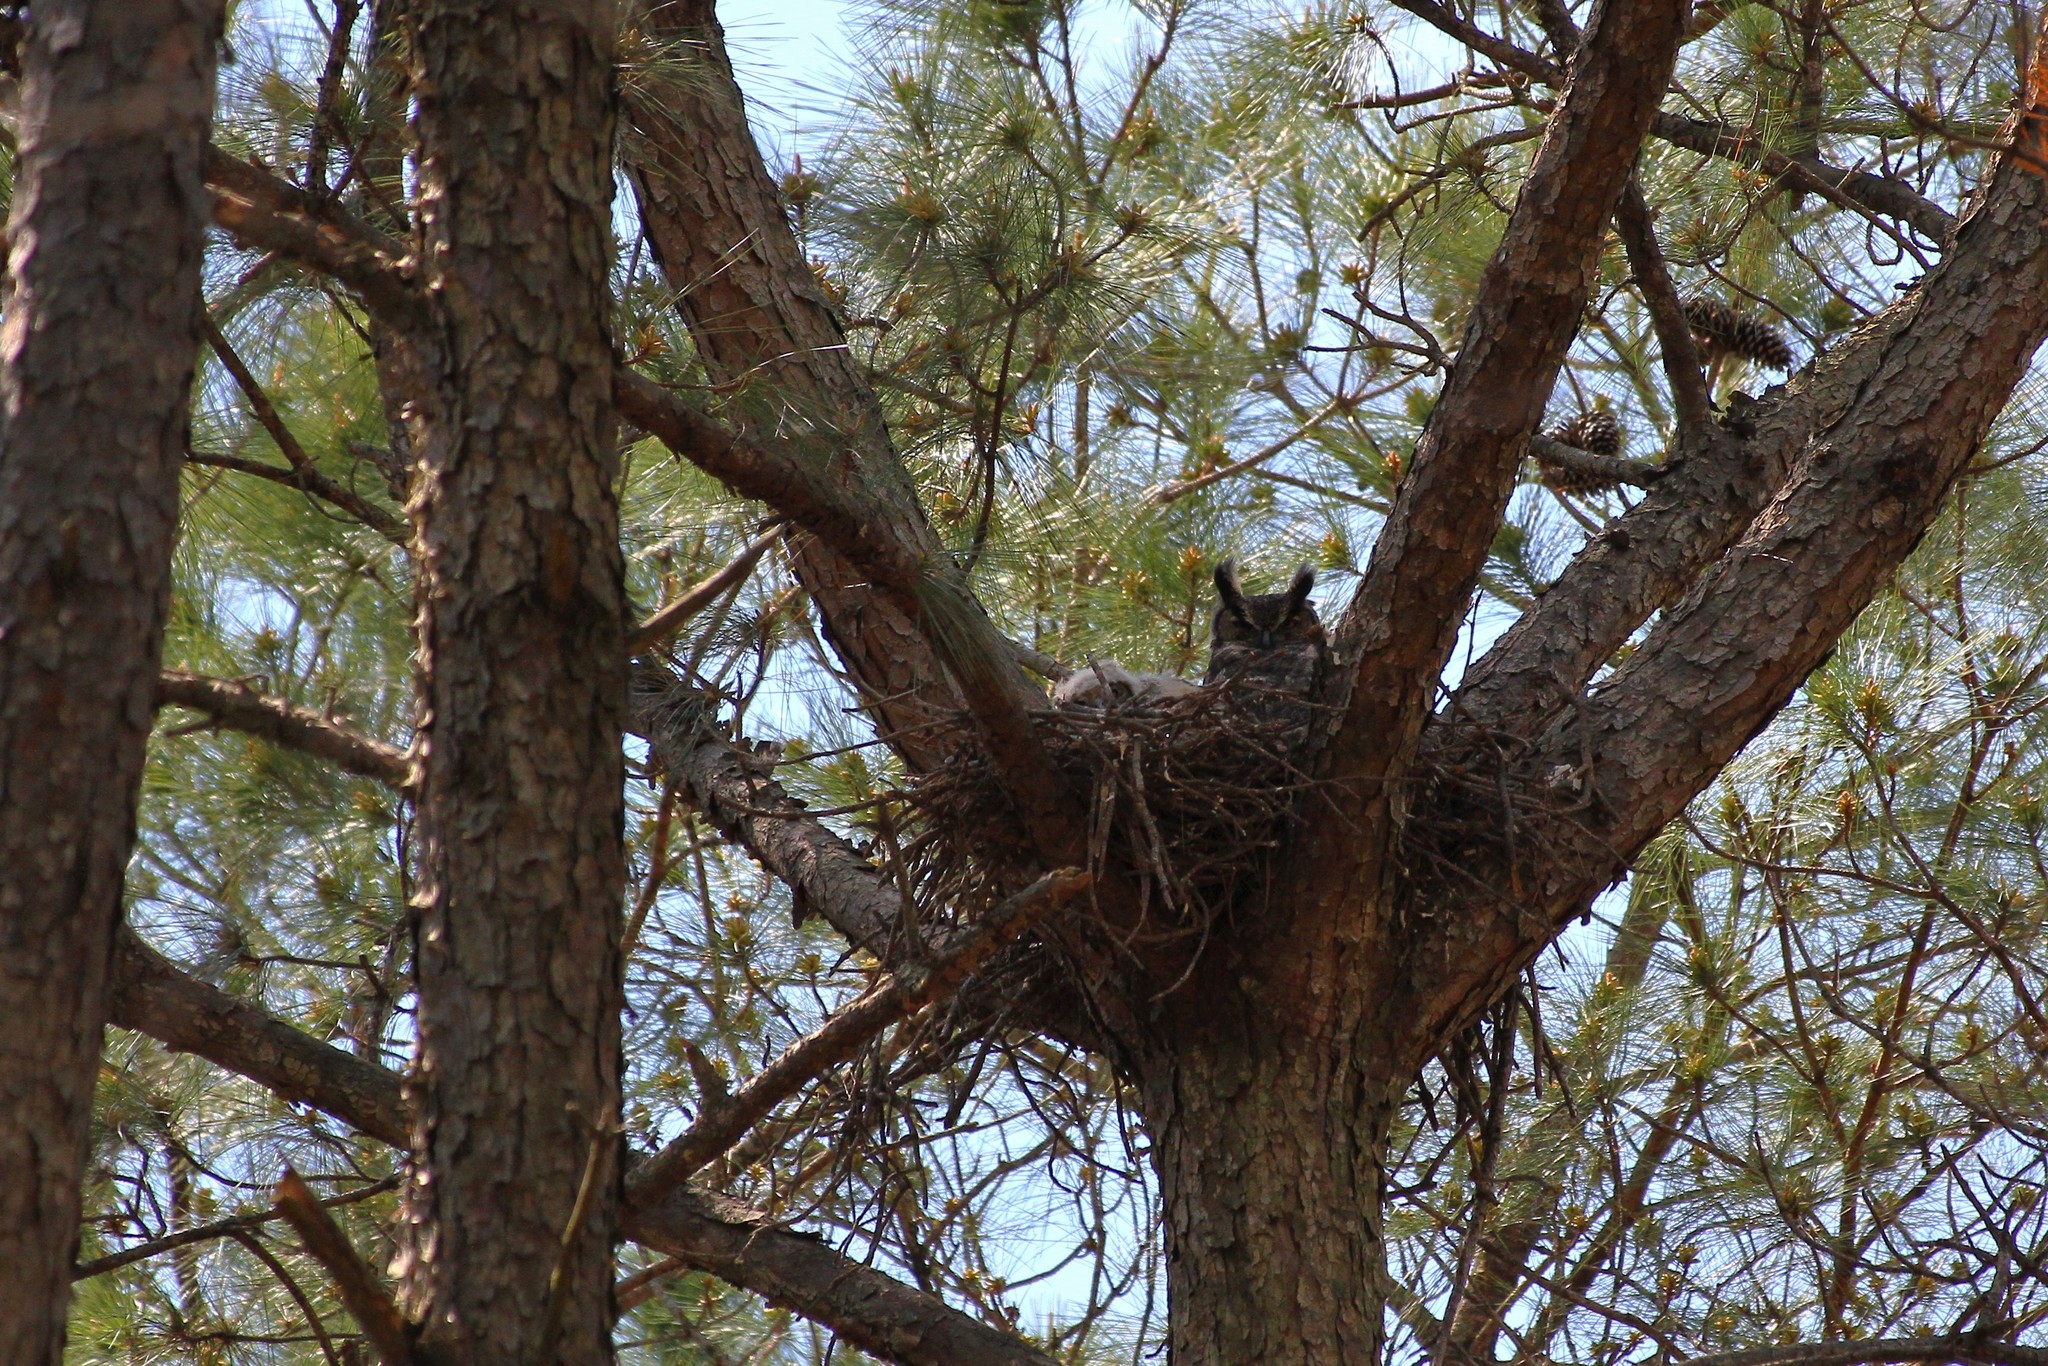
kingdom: Animalia
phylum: Chordata
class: Aves
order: Strigiformes
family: Strigidae
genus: Bubo
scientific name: Bubo virginianus
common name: Great horned owl
